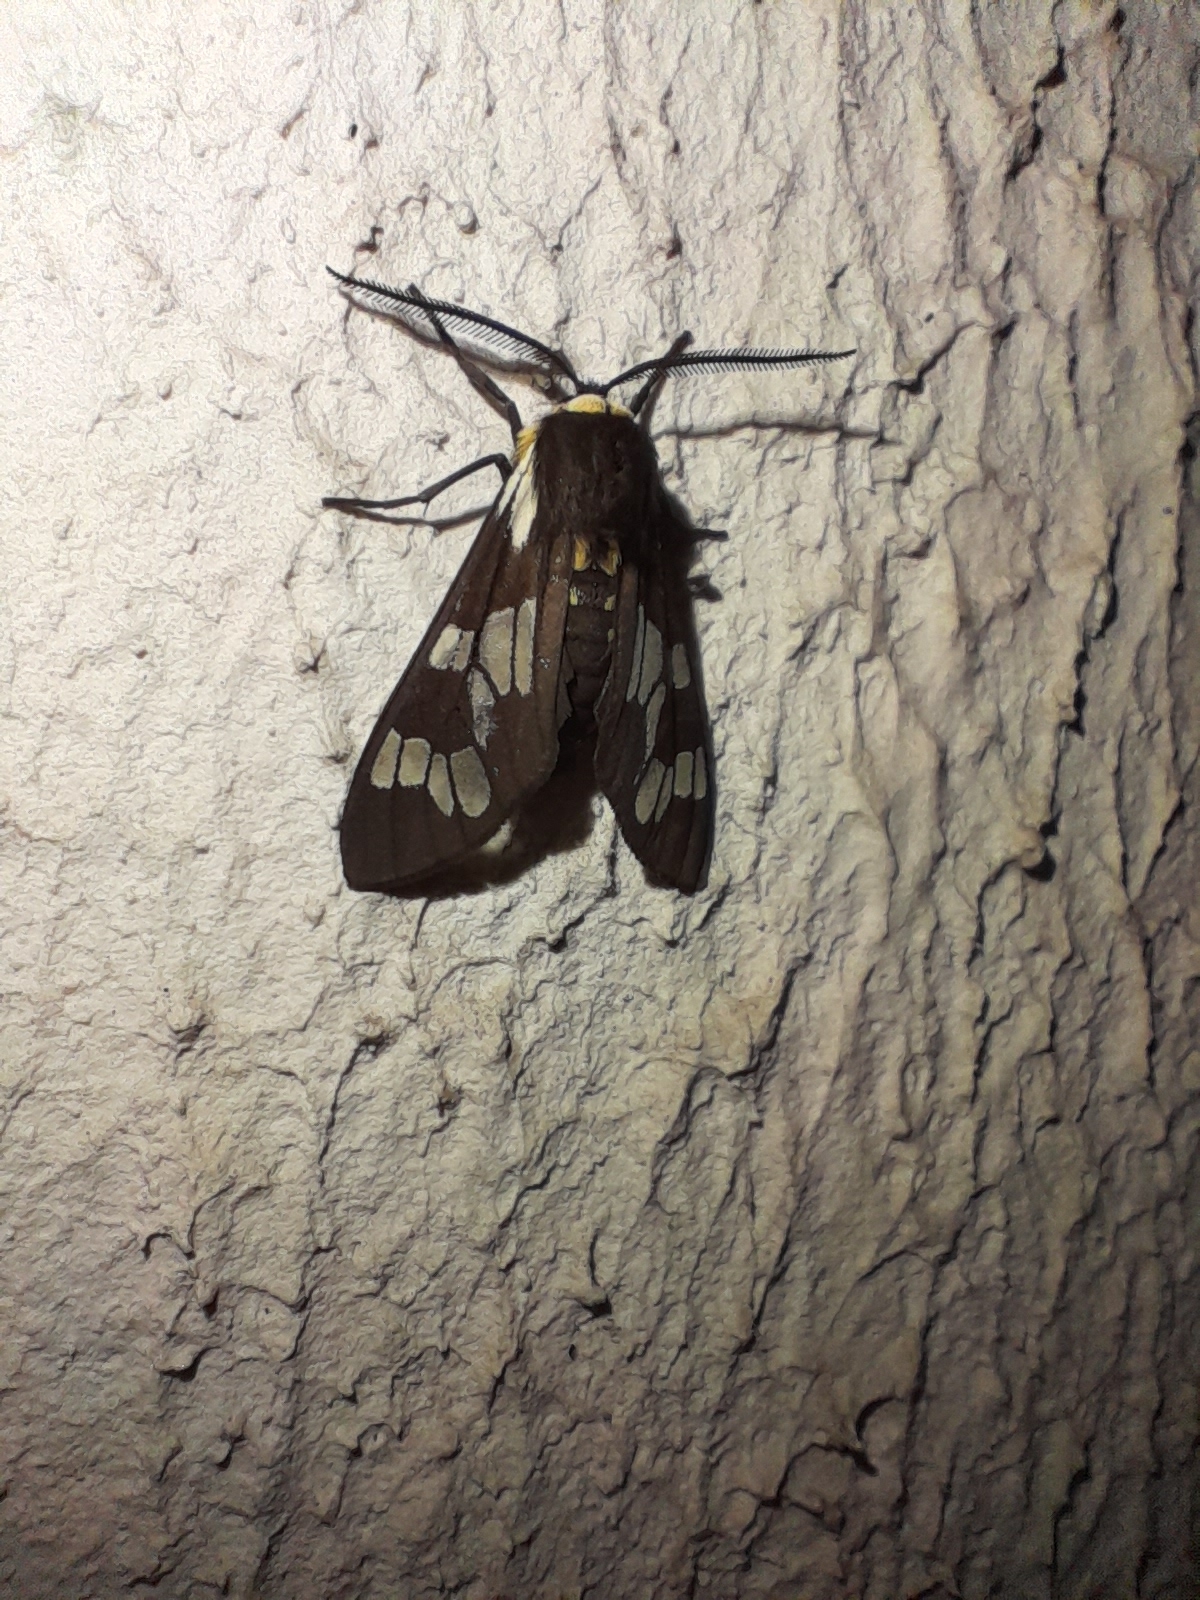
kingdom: Animalia
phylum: Arthropoda
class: Insecta
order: Lepidoptera
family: Erebidae
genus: Eurata
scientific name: Eurata
